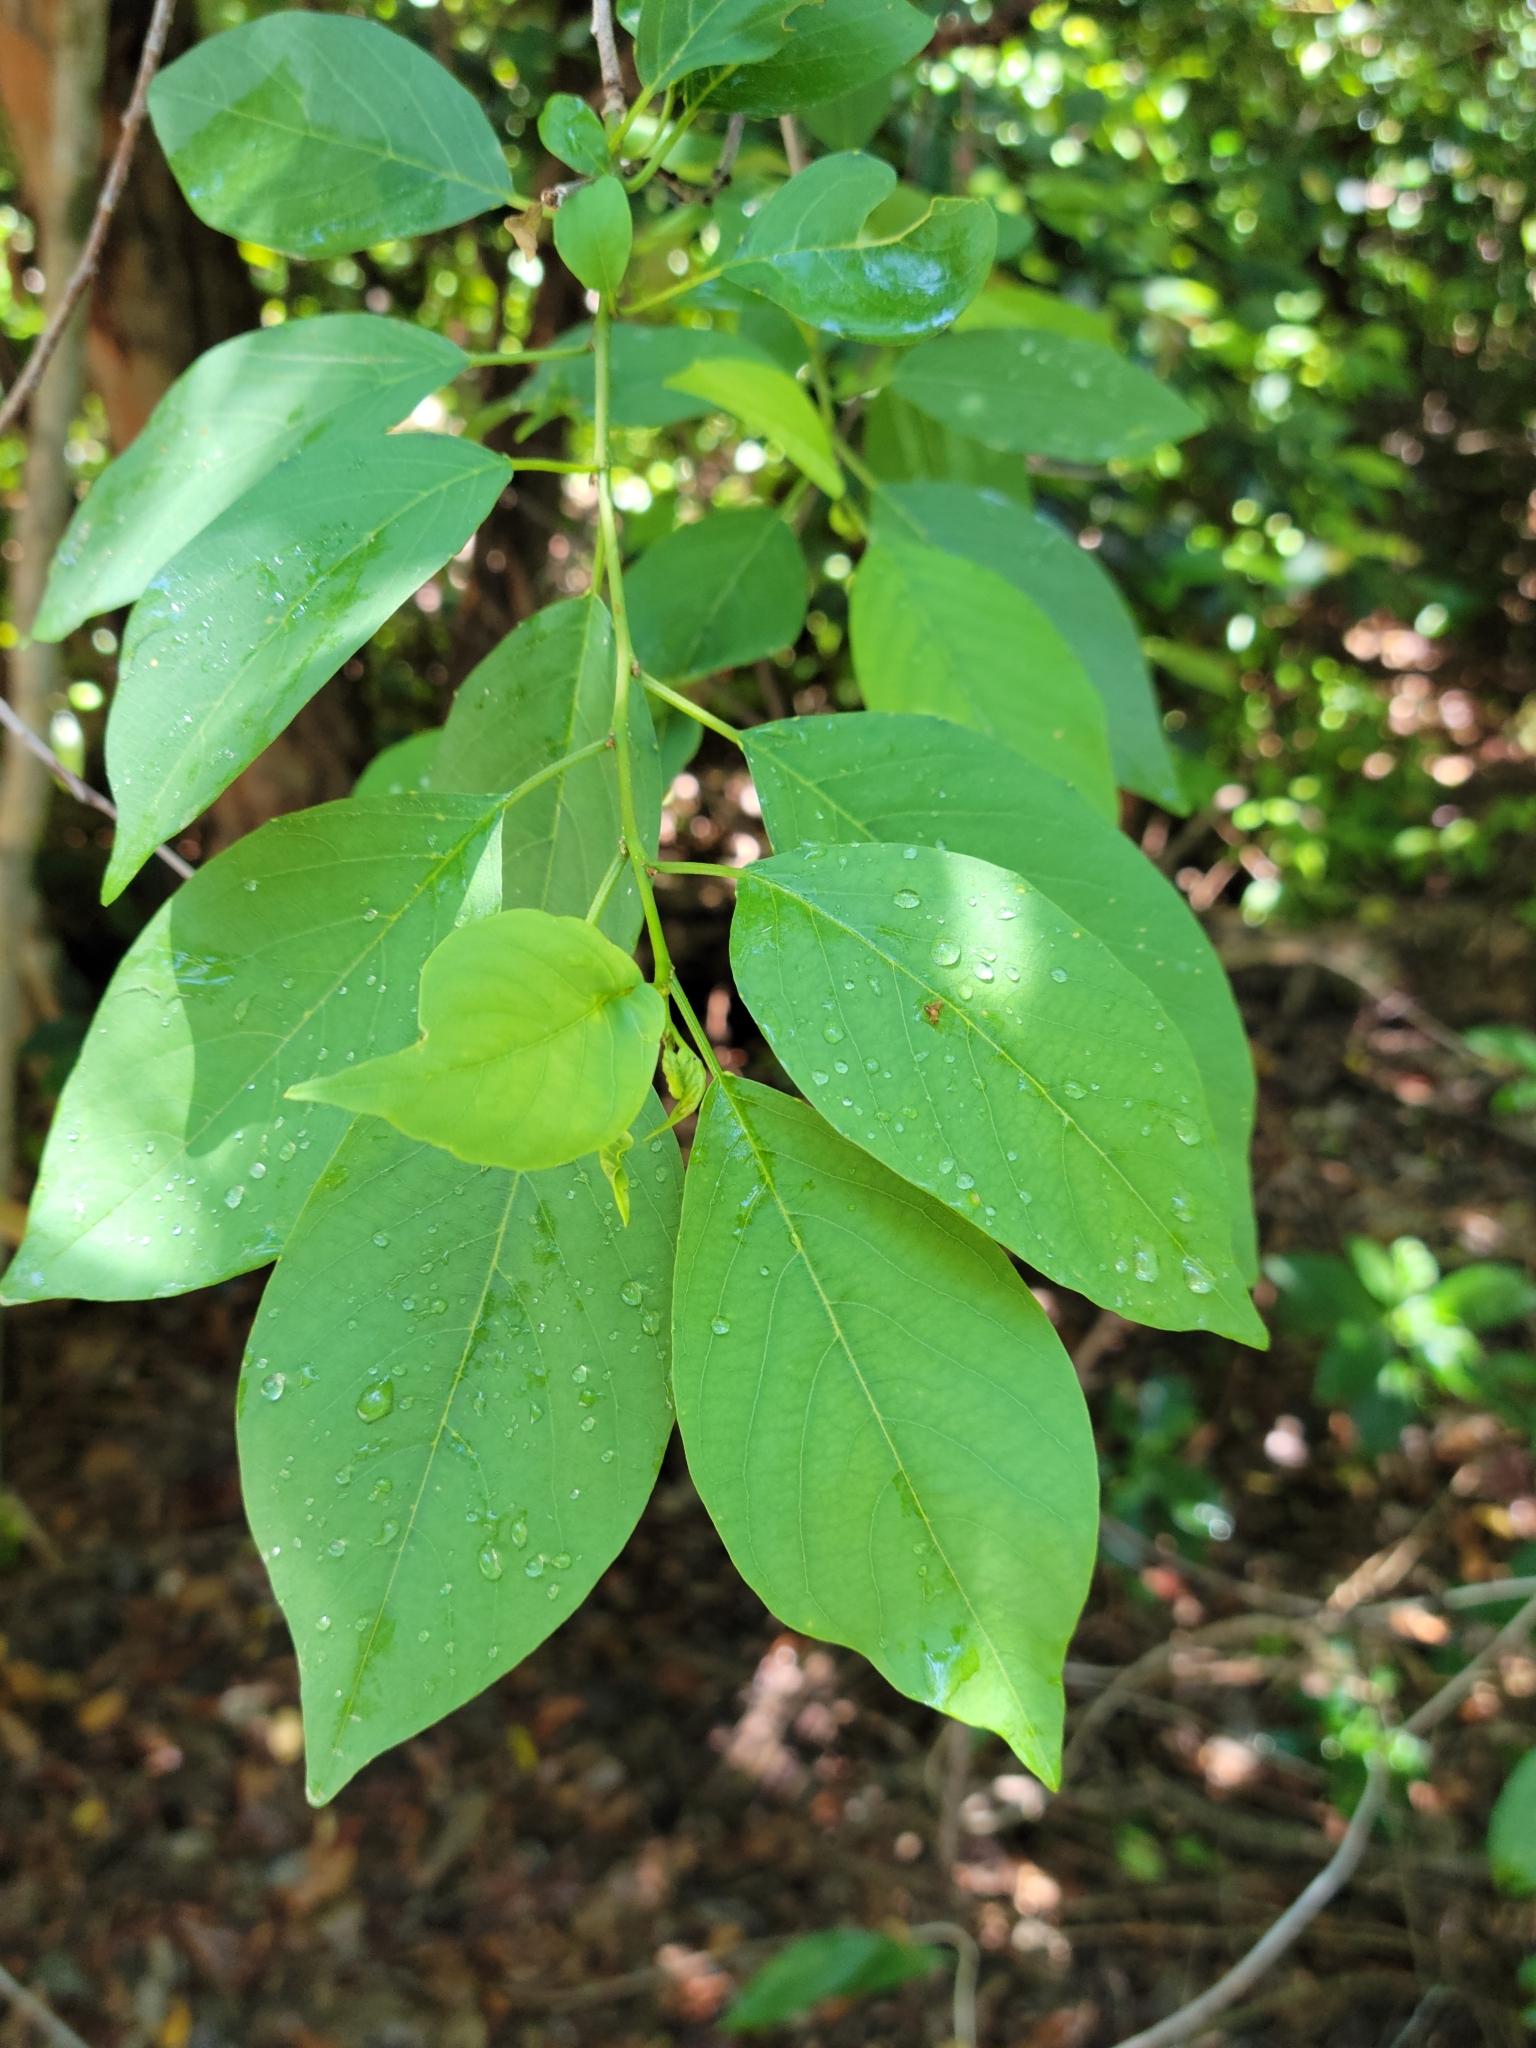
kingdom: Plantae
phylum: Tracheophyta
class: Magnoliopsida
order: Rosales
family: Rhamnaceae
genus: Colubrina
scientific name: Colubrina elliptica
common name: Soldierwood
